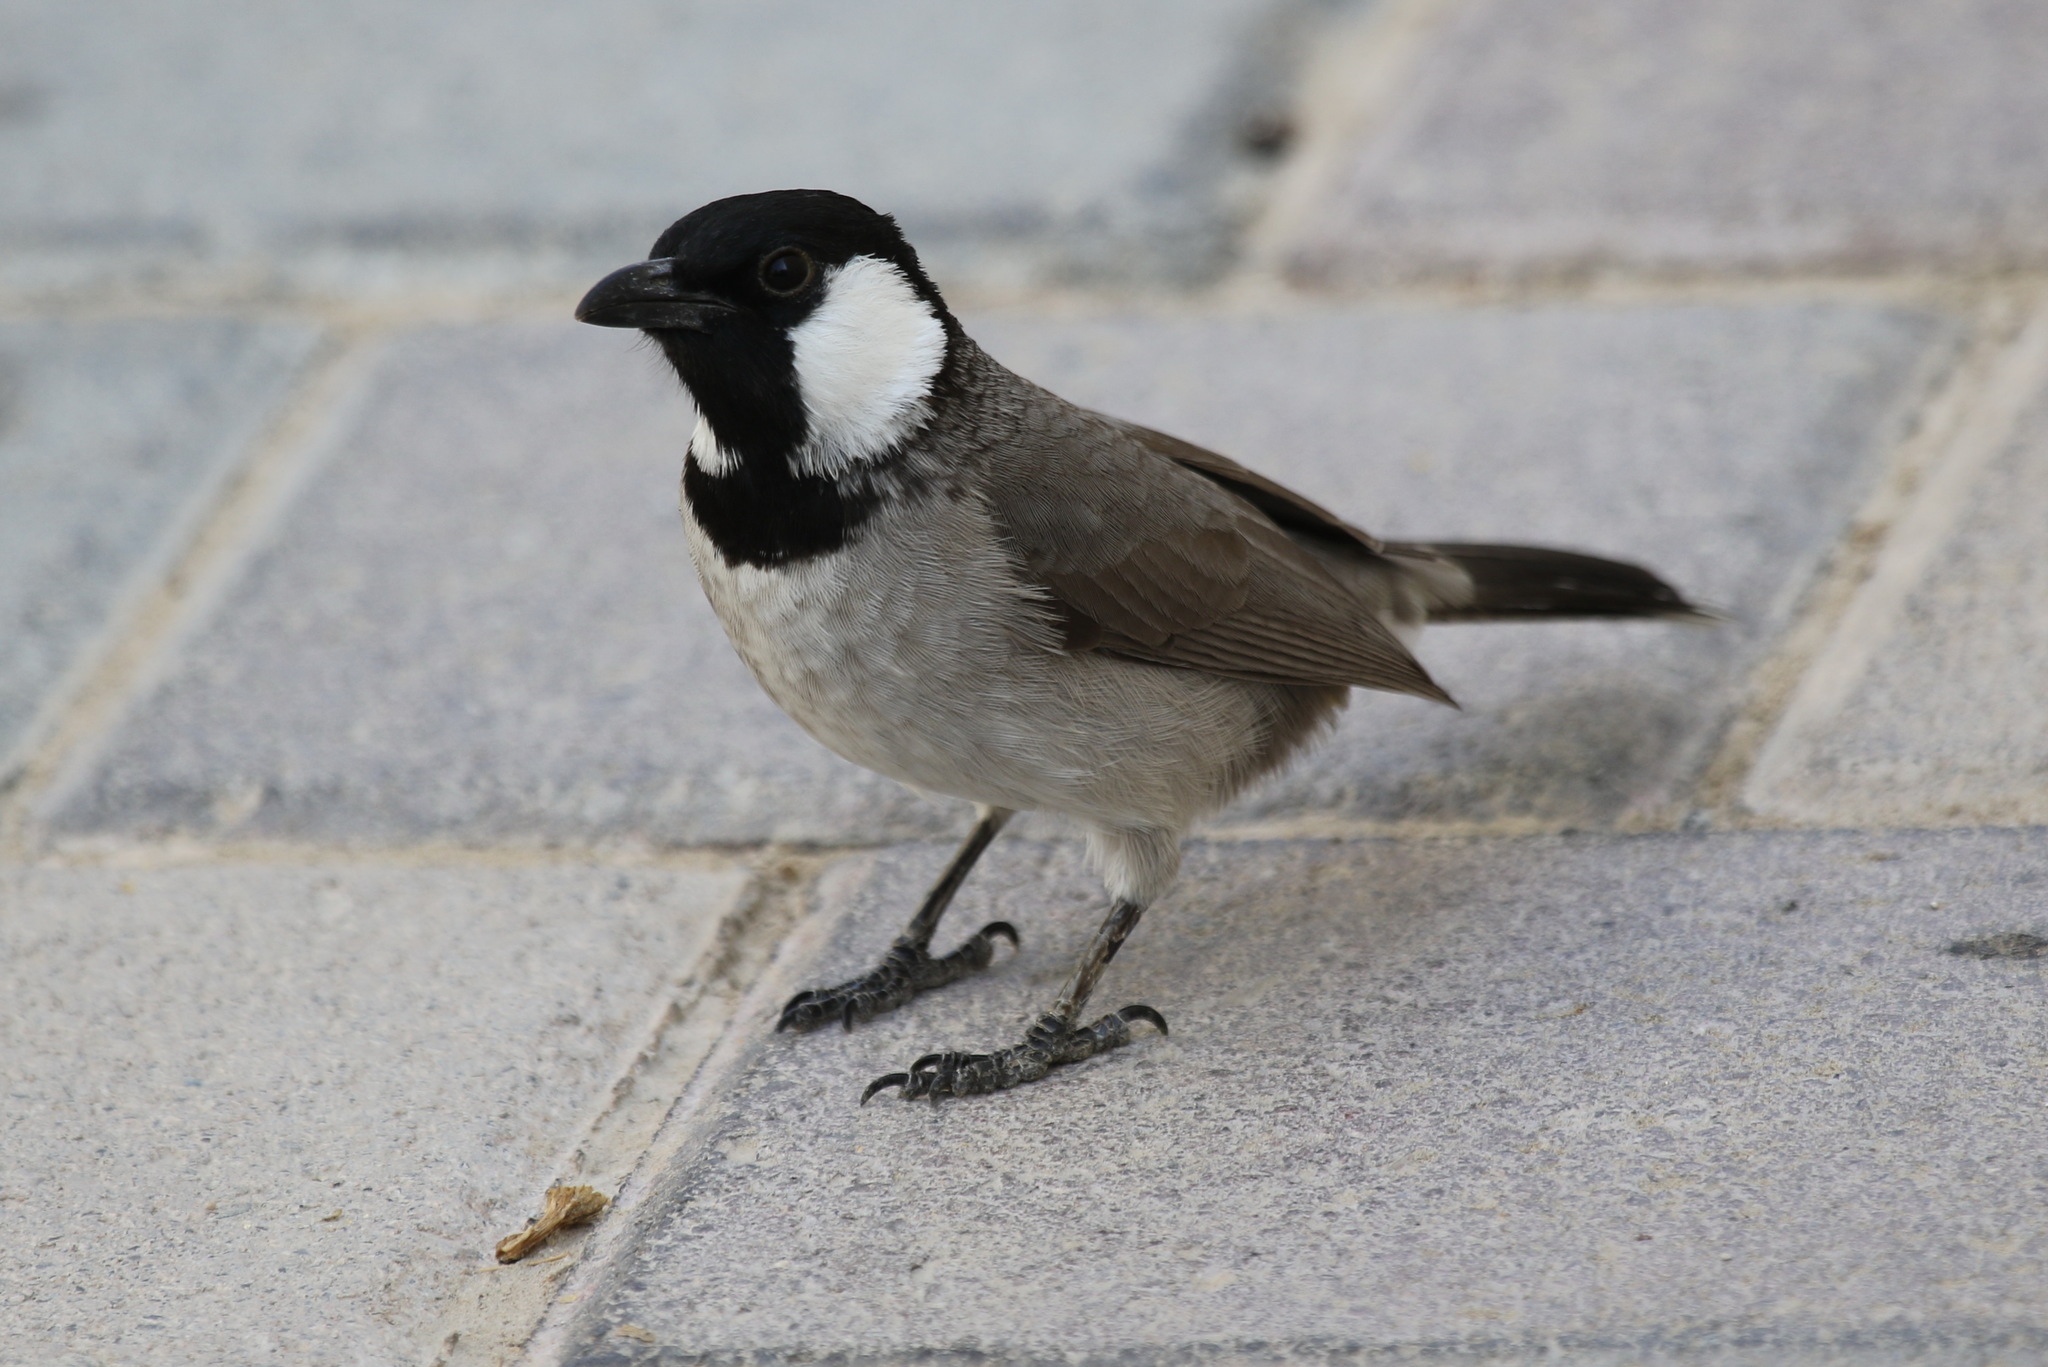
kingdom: Animalia
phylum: Chordata
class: Aves
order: Passeriformes
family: Pycnonotidae
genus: Pycnonotus
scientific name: Pycnonotus leucotis
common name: White-eared bulbul
